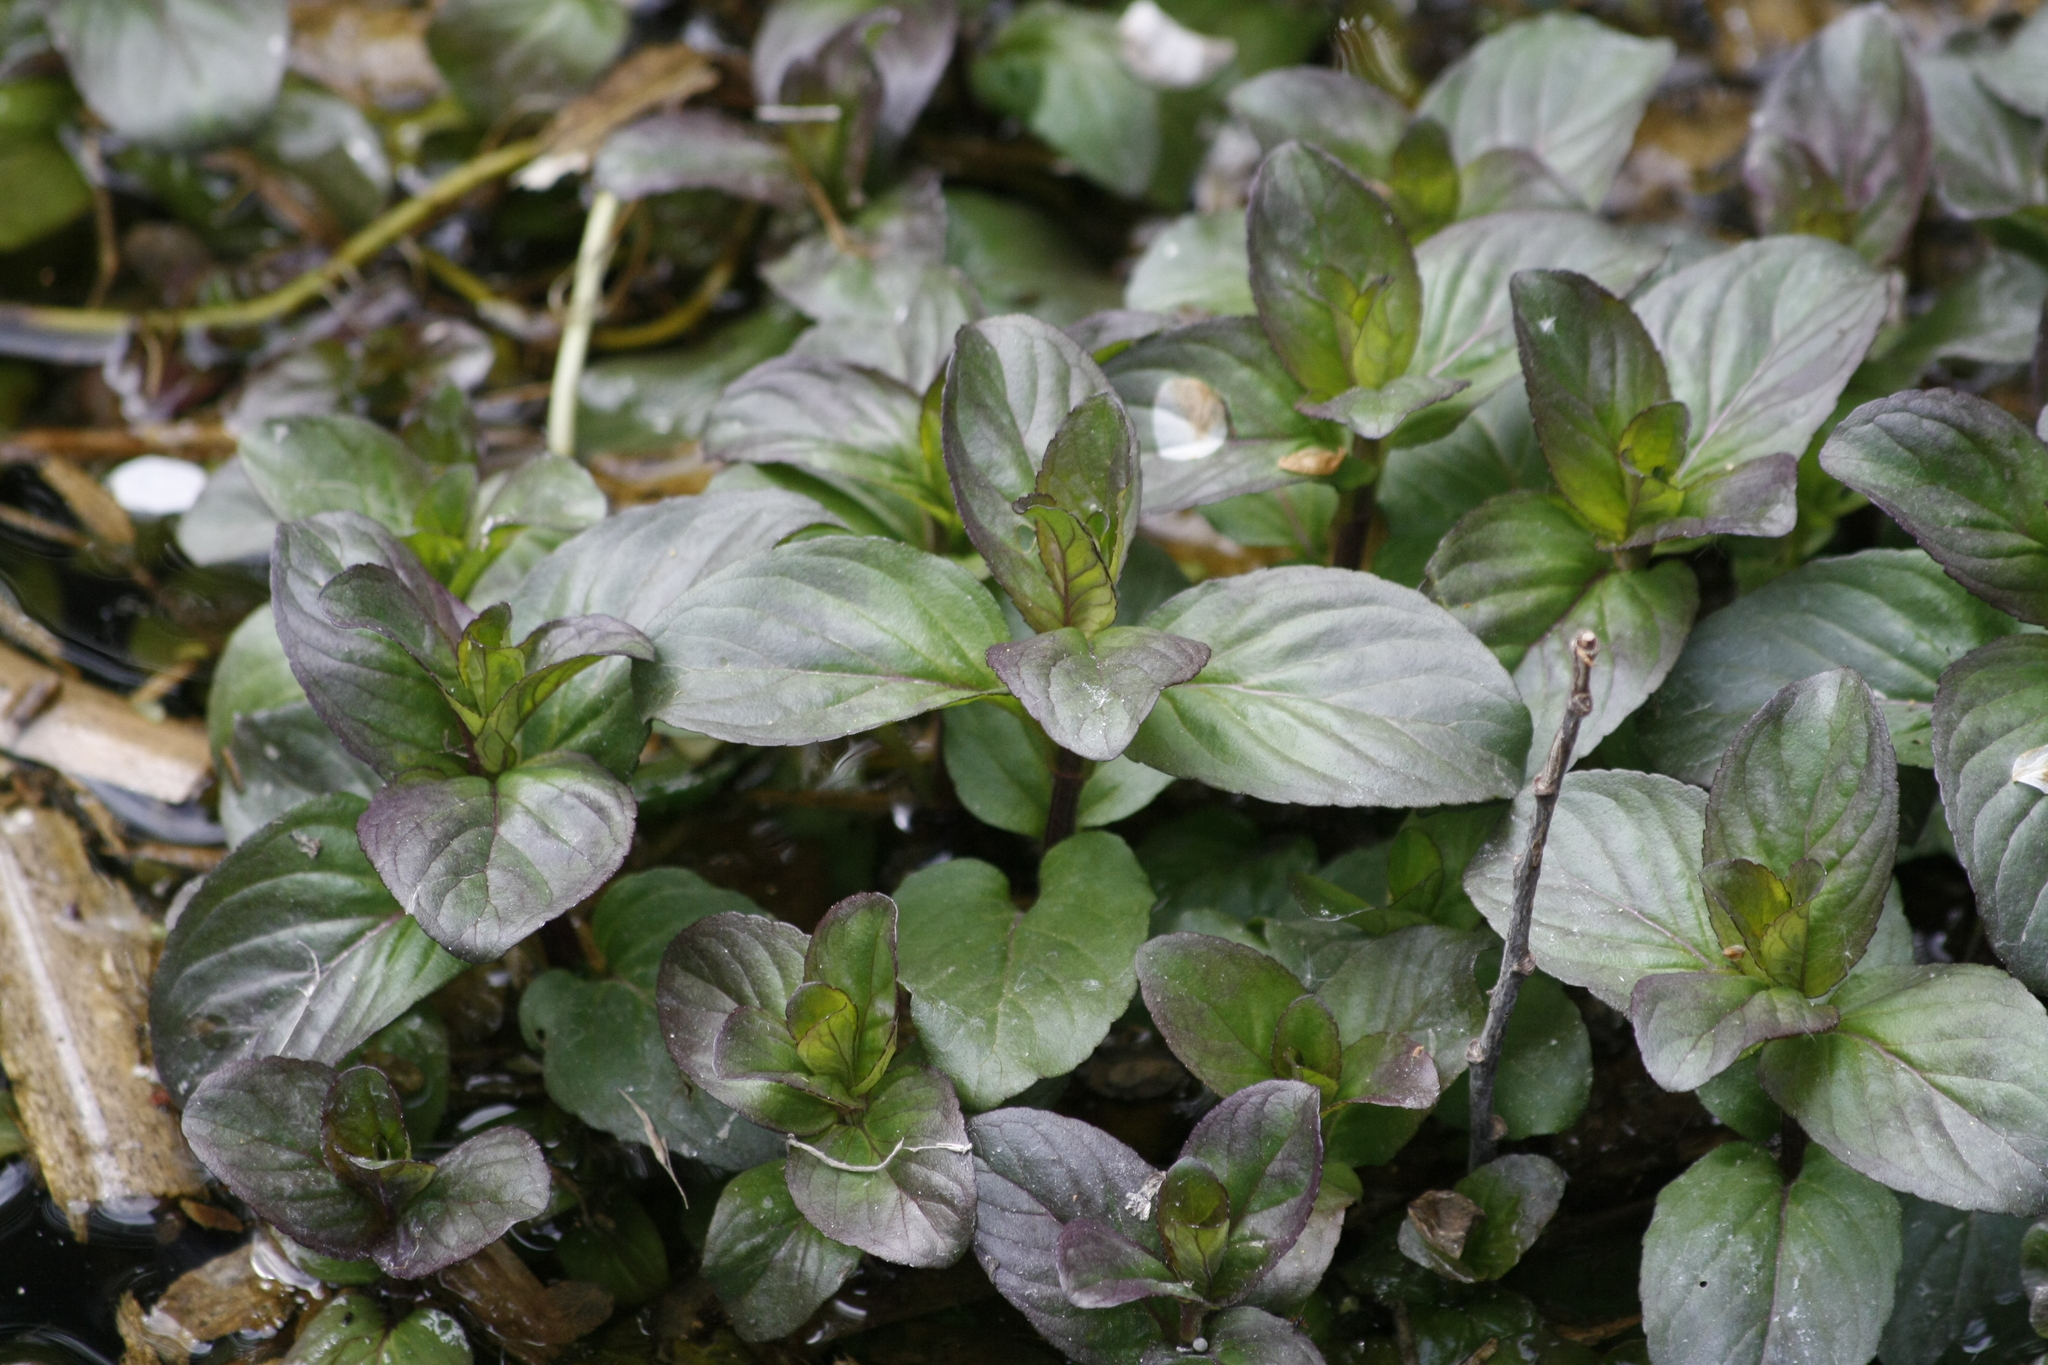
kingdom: Plantae
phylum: Tracheophyta
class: Magnoliopsida
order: Lamiales
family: Lamiaceae
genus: Mentha
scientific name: Mentha aquatica
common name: Water mint
